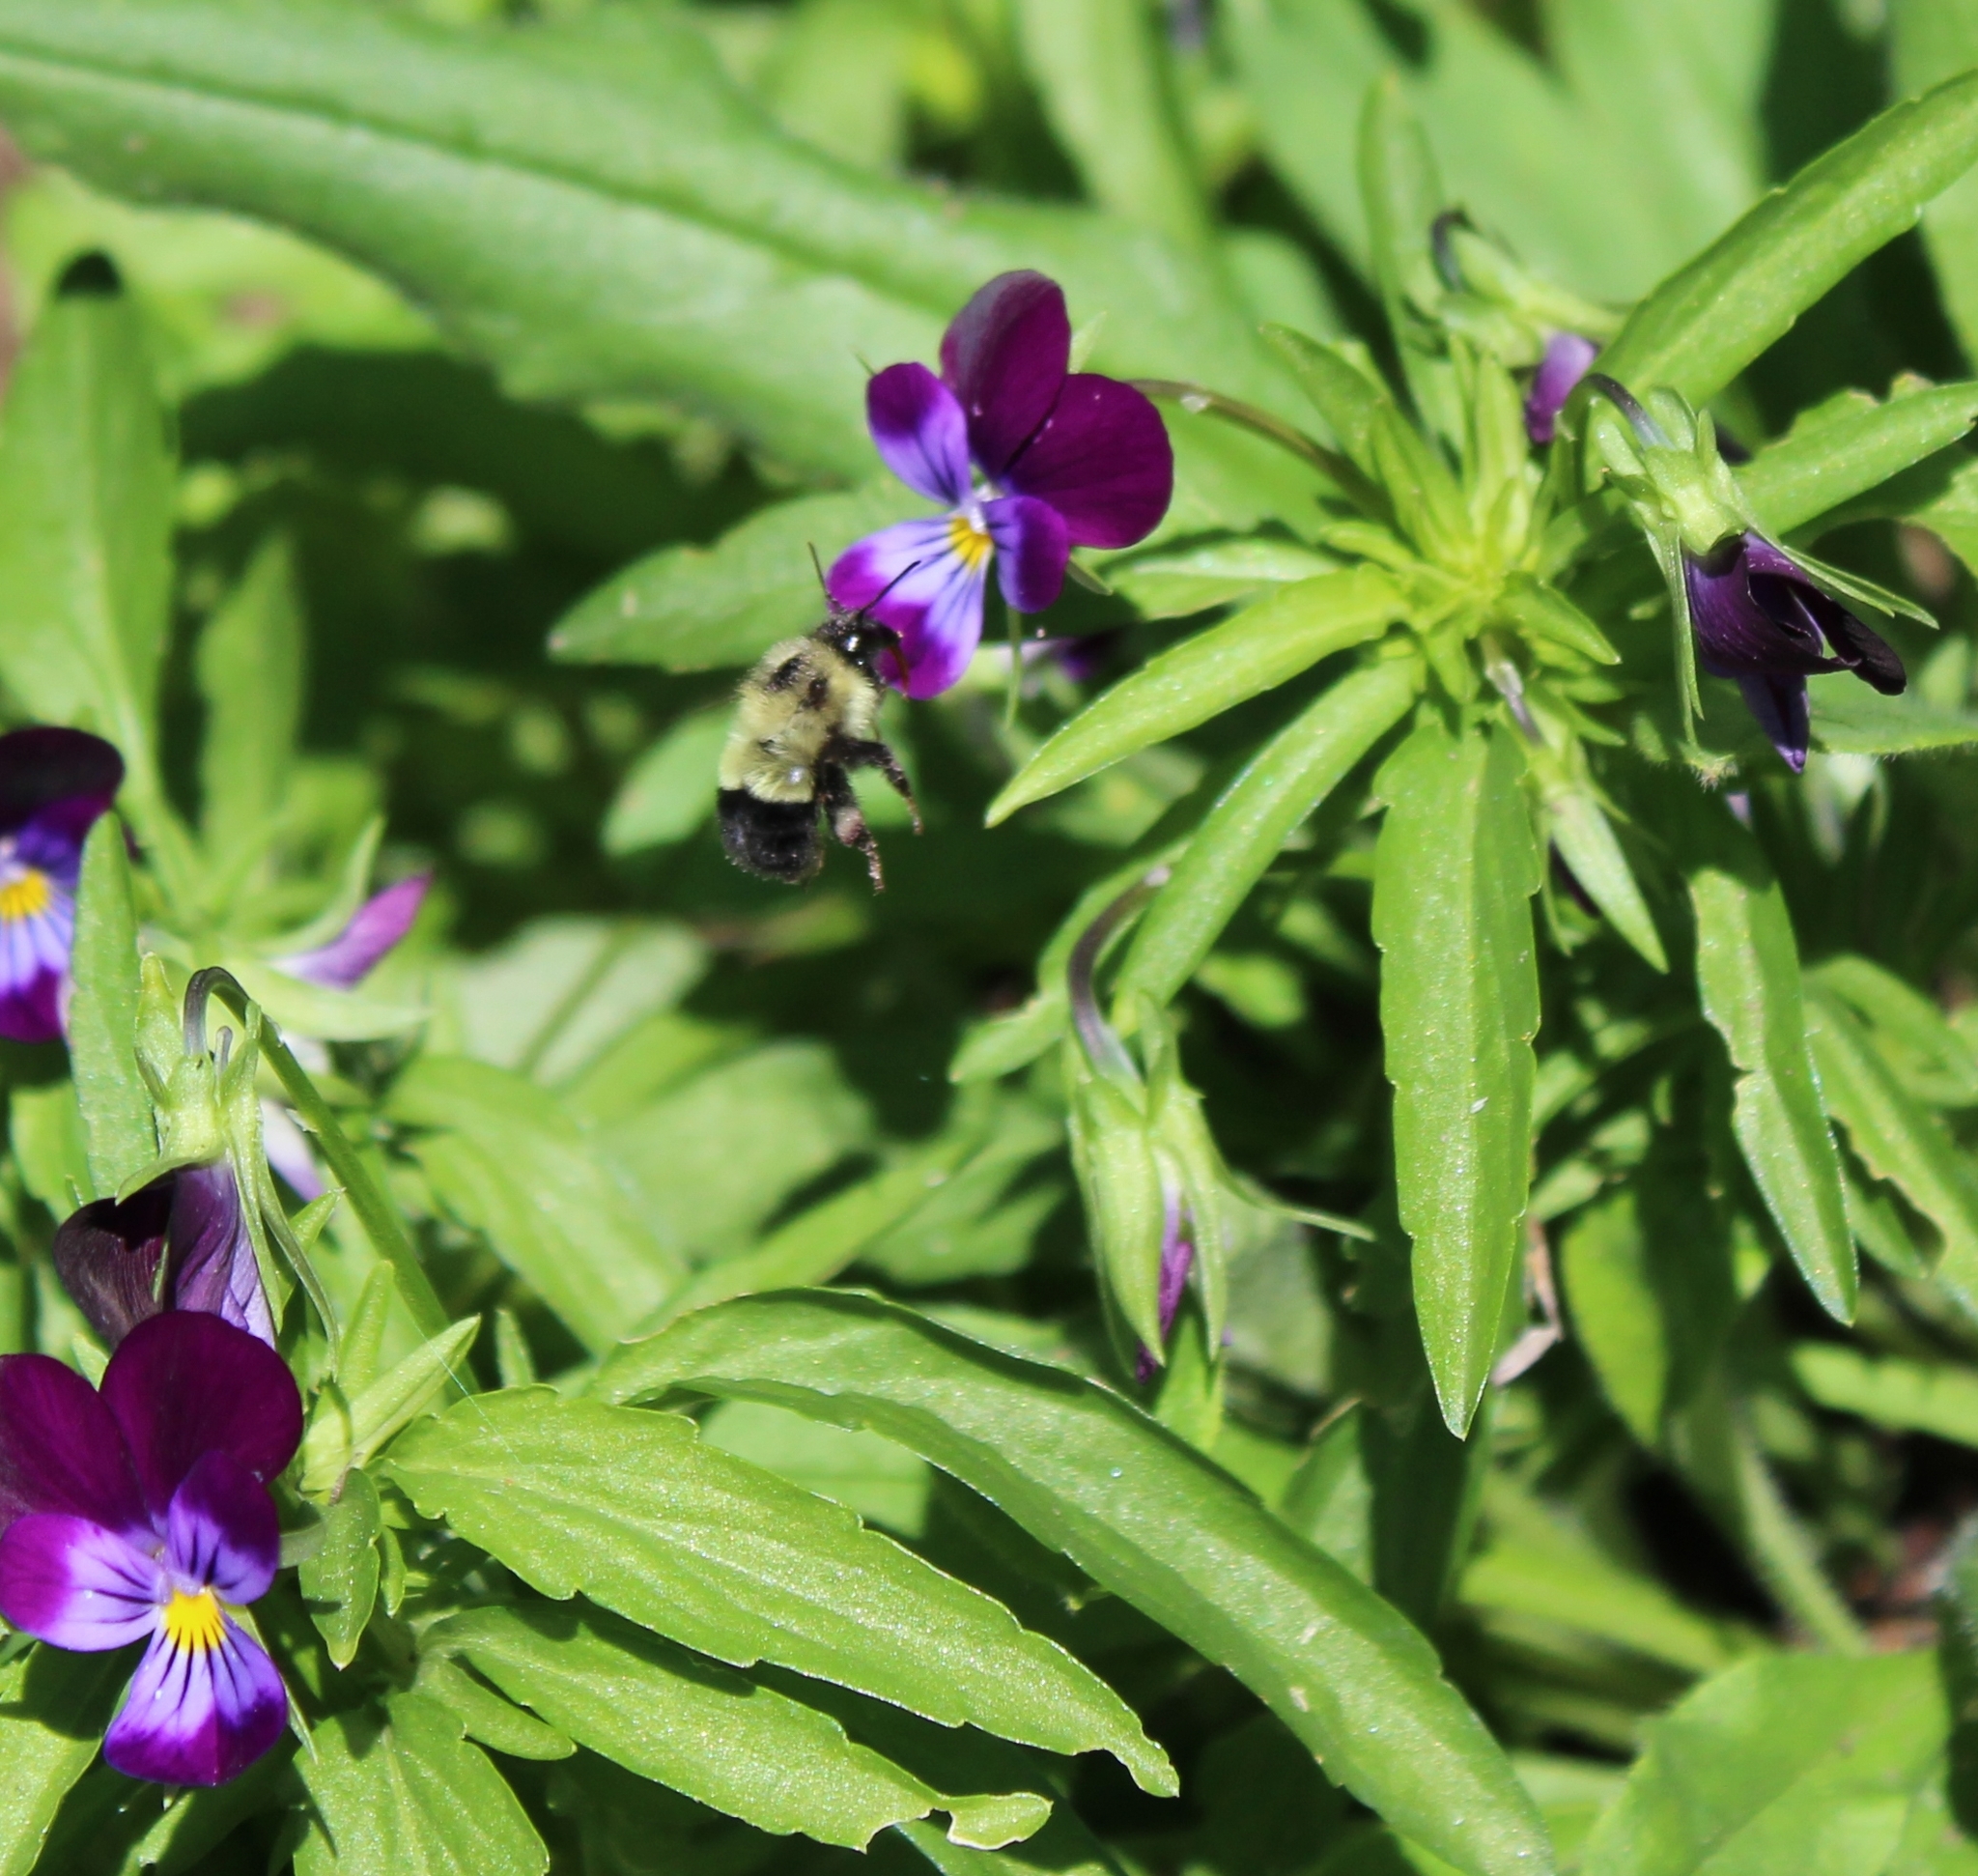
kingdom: Animalia
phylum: Arthropoda
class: Insecta
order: Hymenoptera
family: Apidae
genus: Bombus
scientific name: Bombus vagans
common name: Half-black bumble bee
